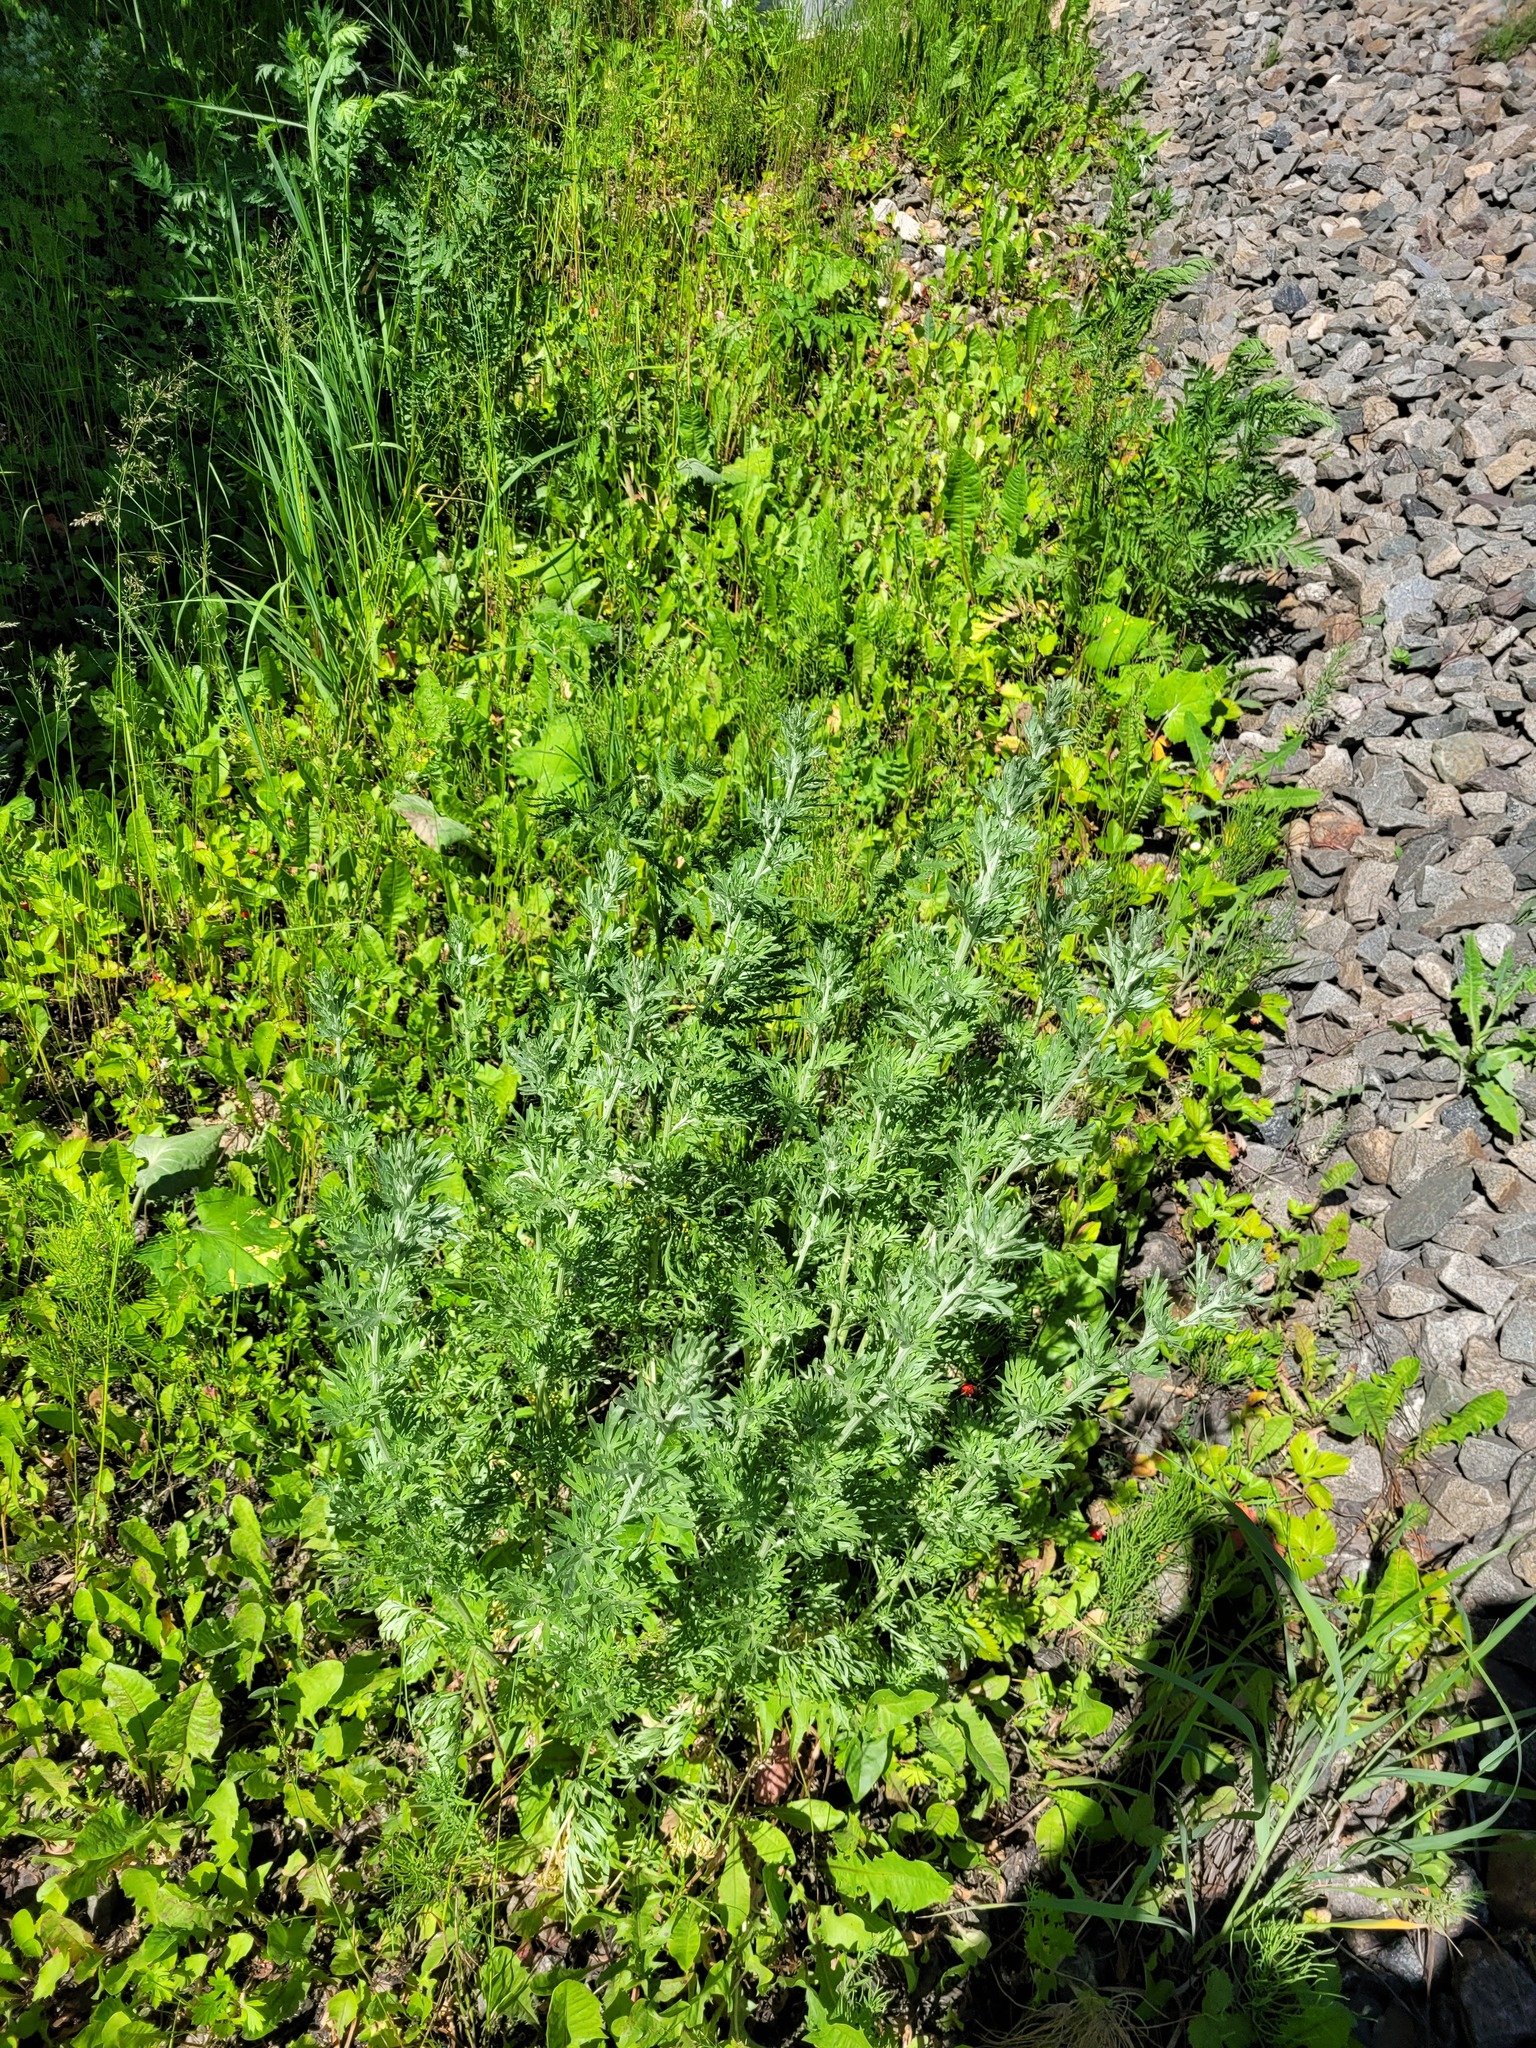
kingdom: Plantae
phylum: Tracheophyta
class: Magnoliopsida
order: Asterales
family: Asteraceae
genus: Artemisia
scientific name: Artemisia absinthium
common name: Wormwood
